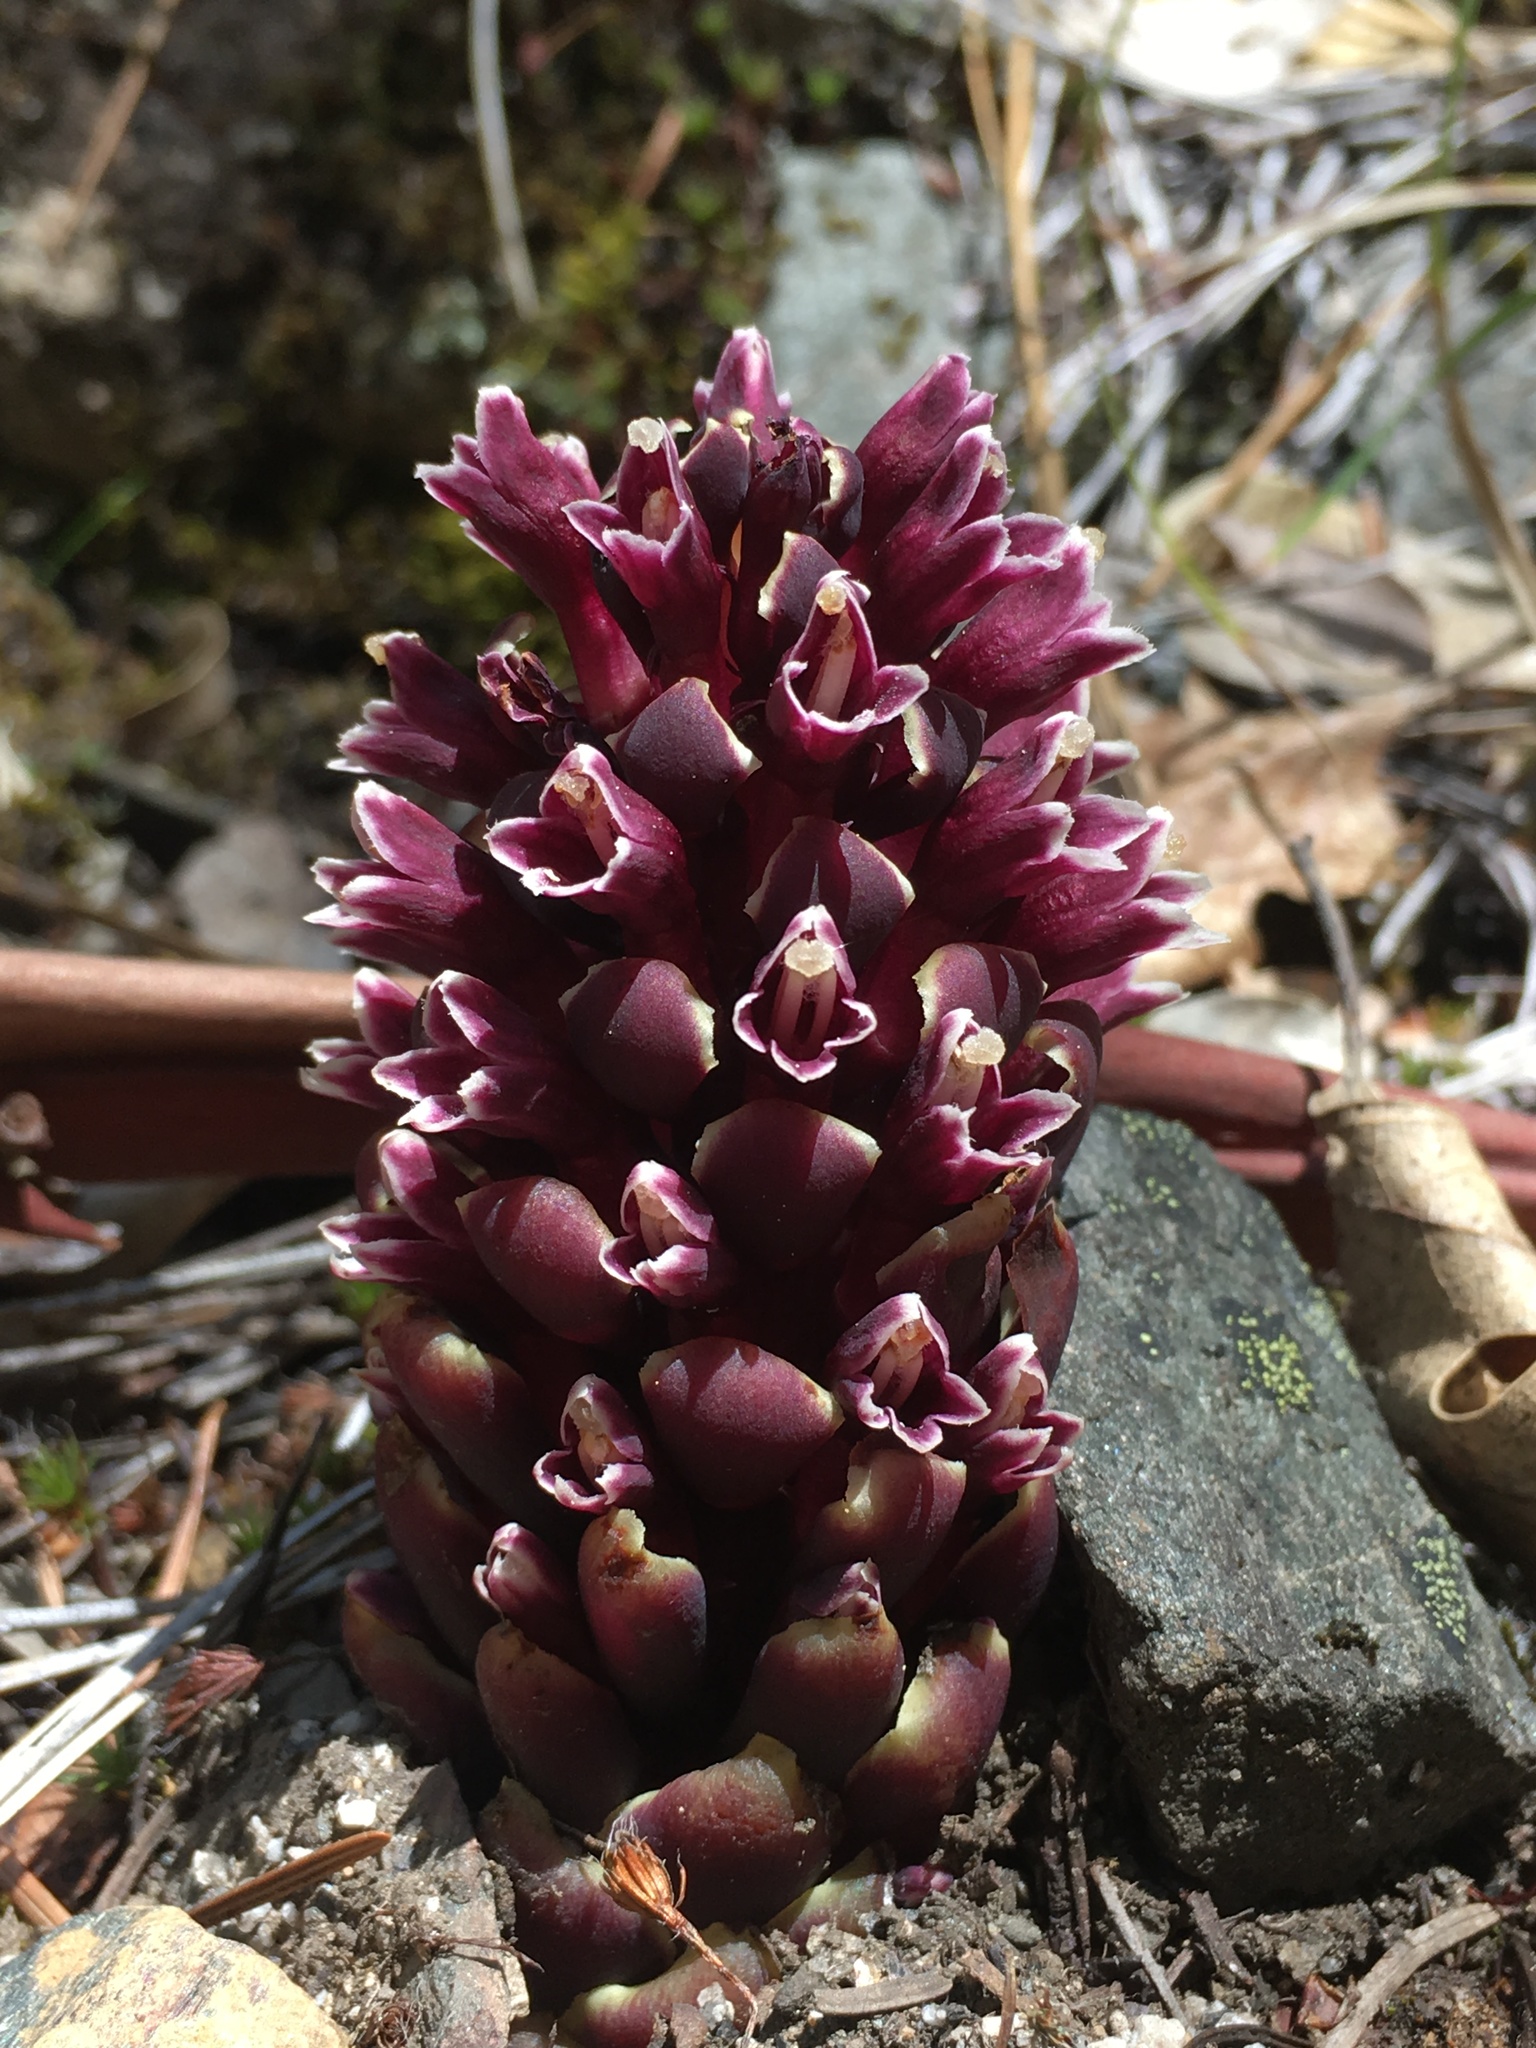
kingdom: Plantae
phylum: Tracheophyta
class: Magnoliopsida
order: Lamiales
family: Orobanchaceae
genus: Kopsiopsis
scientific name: Kopsiopsis strobilacea
